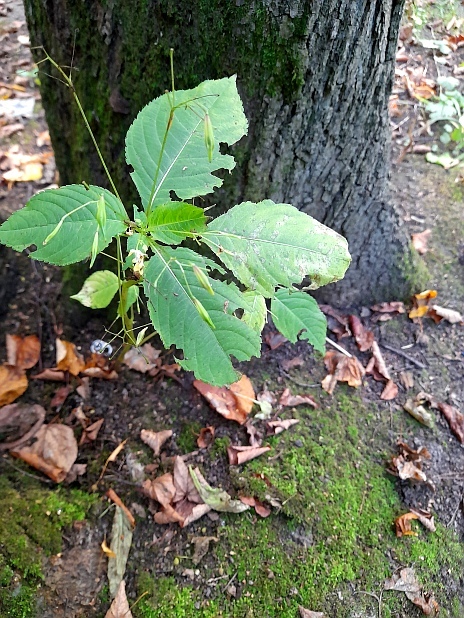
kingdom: Plantae
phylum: Tracheophyta
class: Magnoliopsida
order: Ericales
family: Balsaminaceae
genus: Impatiens
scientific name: Impatiens parviflora
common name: Small balsam
